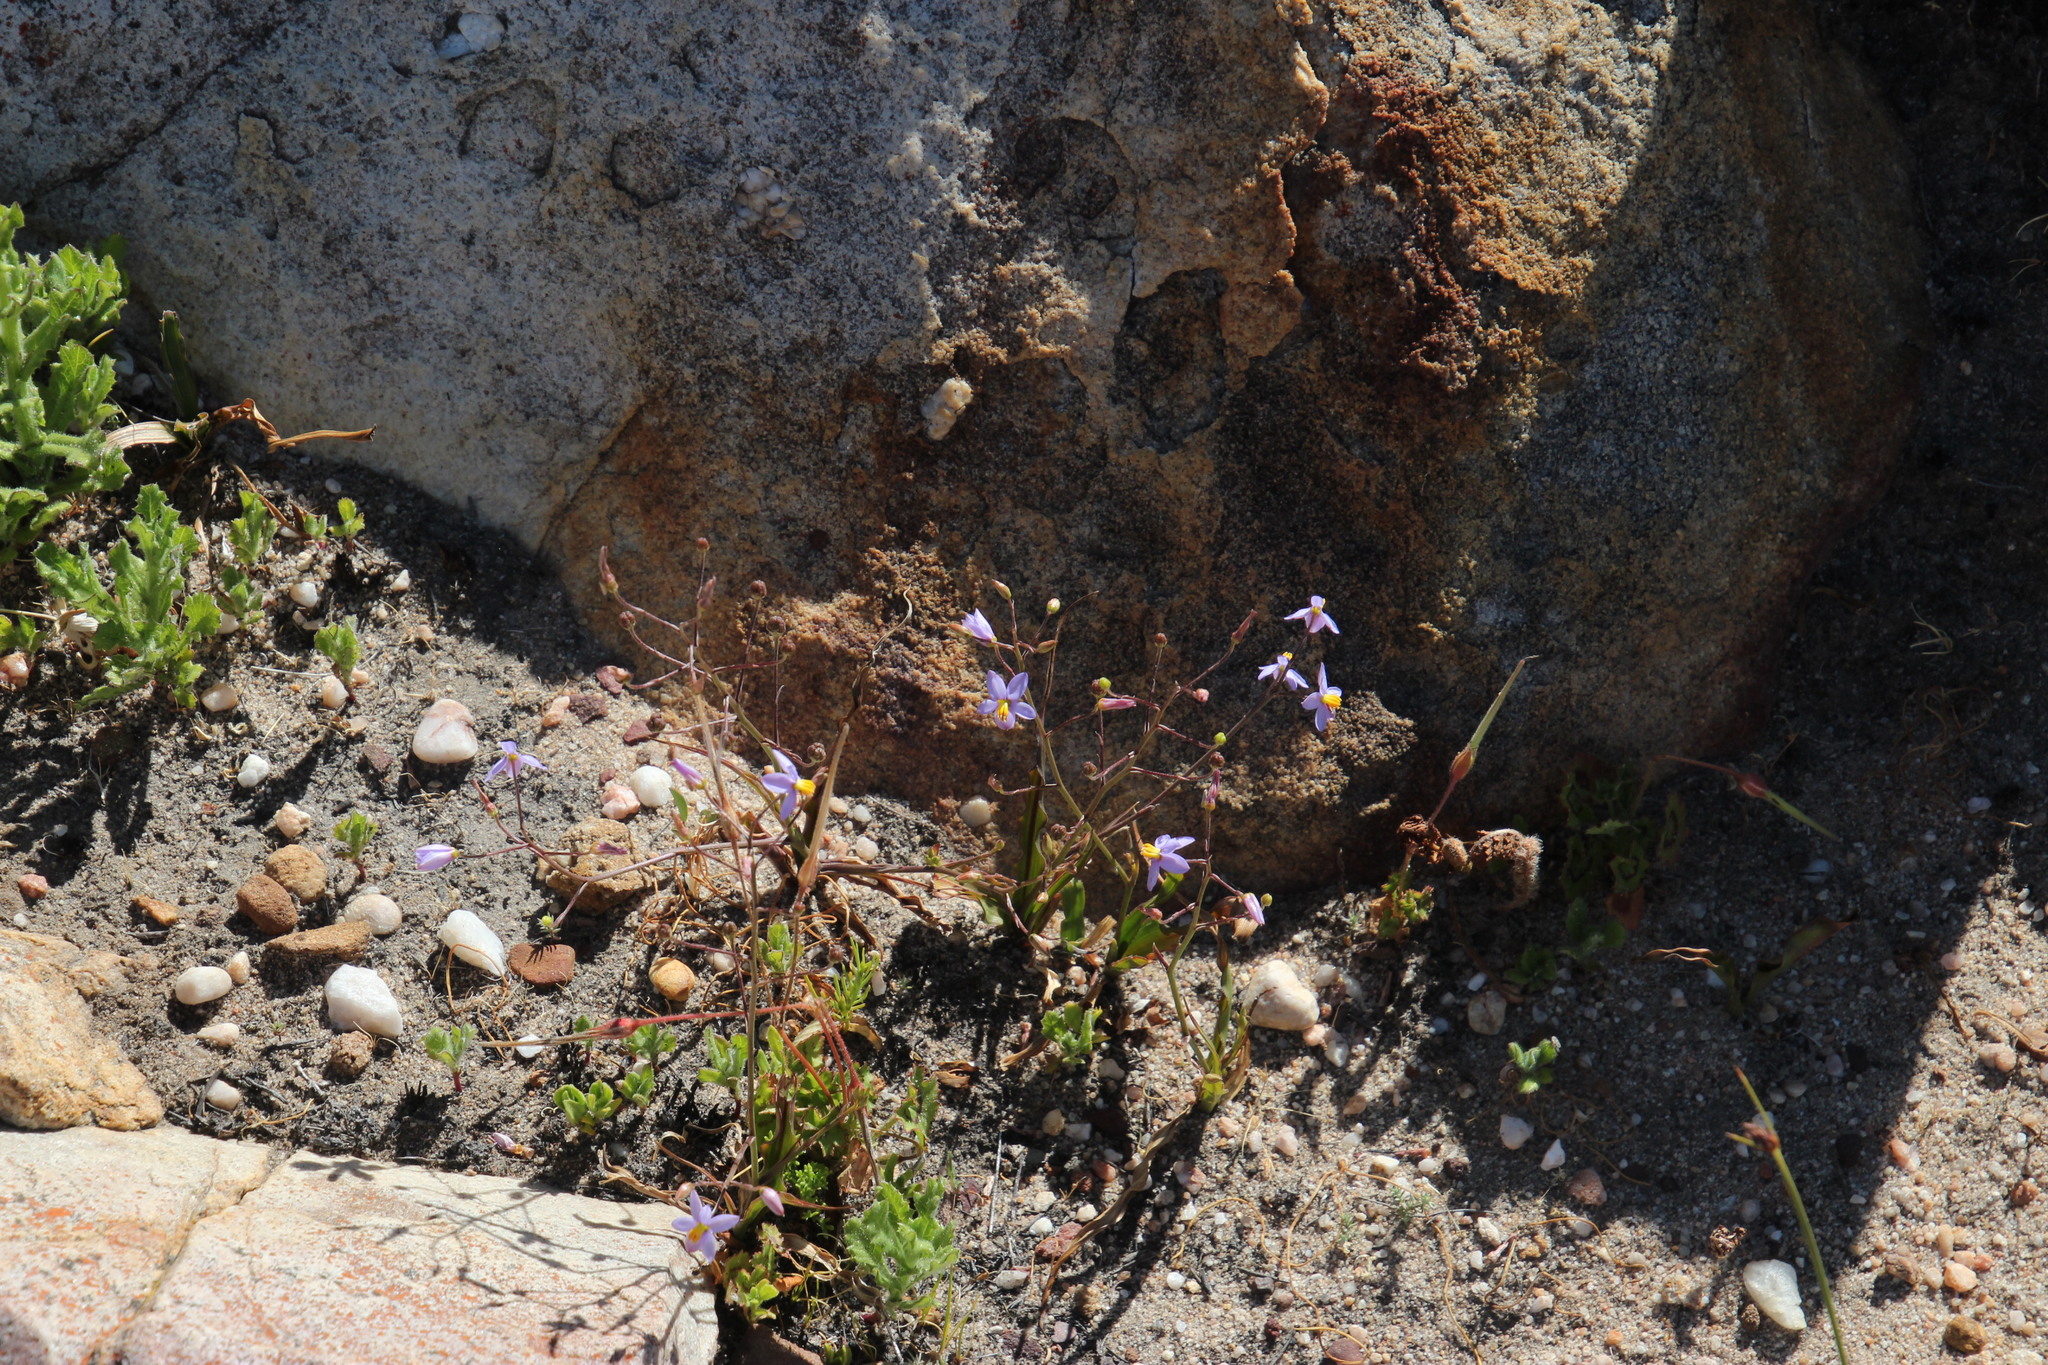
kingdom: Plantae
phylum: Tracheophyta
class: Liliopsida
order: Asparagales
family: Tecophilaeaceae
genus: Cyanella
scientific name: Cyanella hyacinthoides
